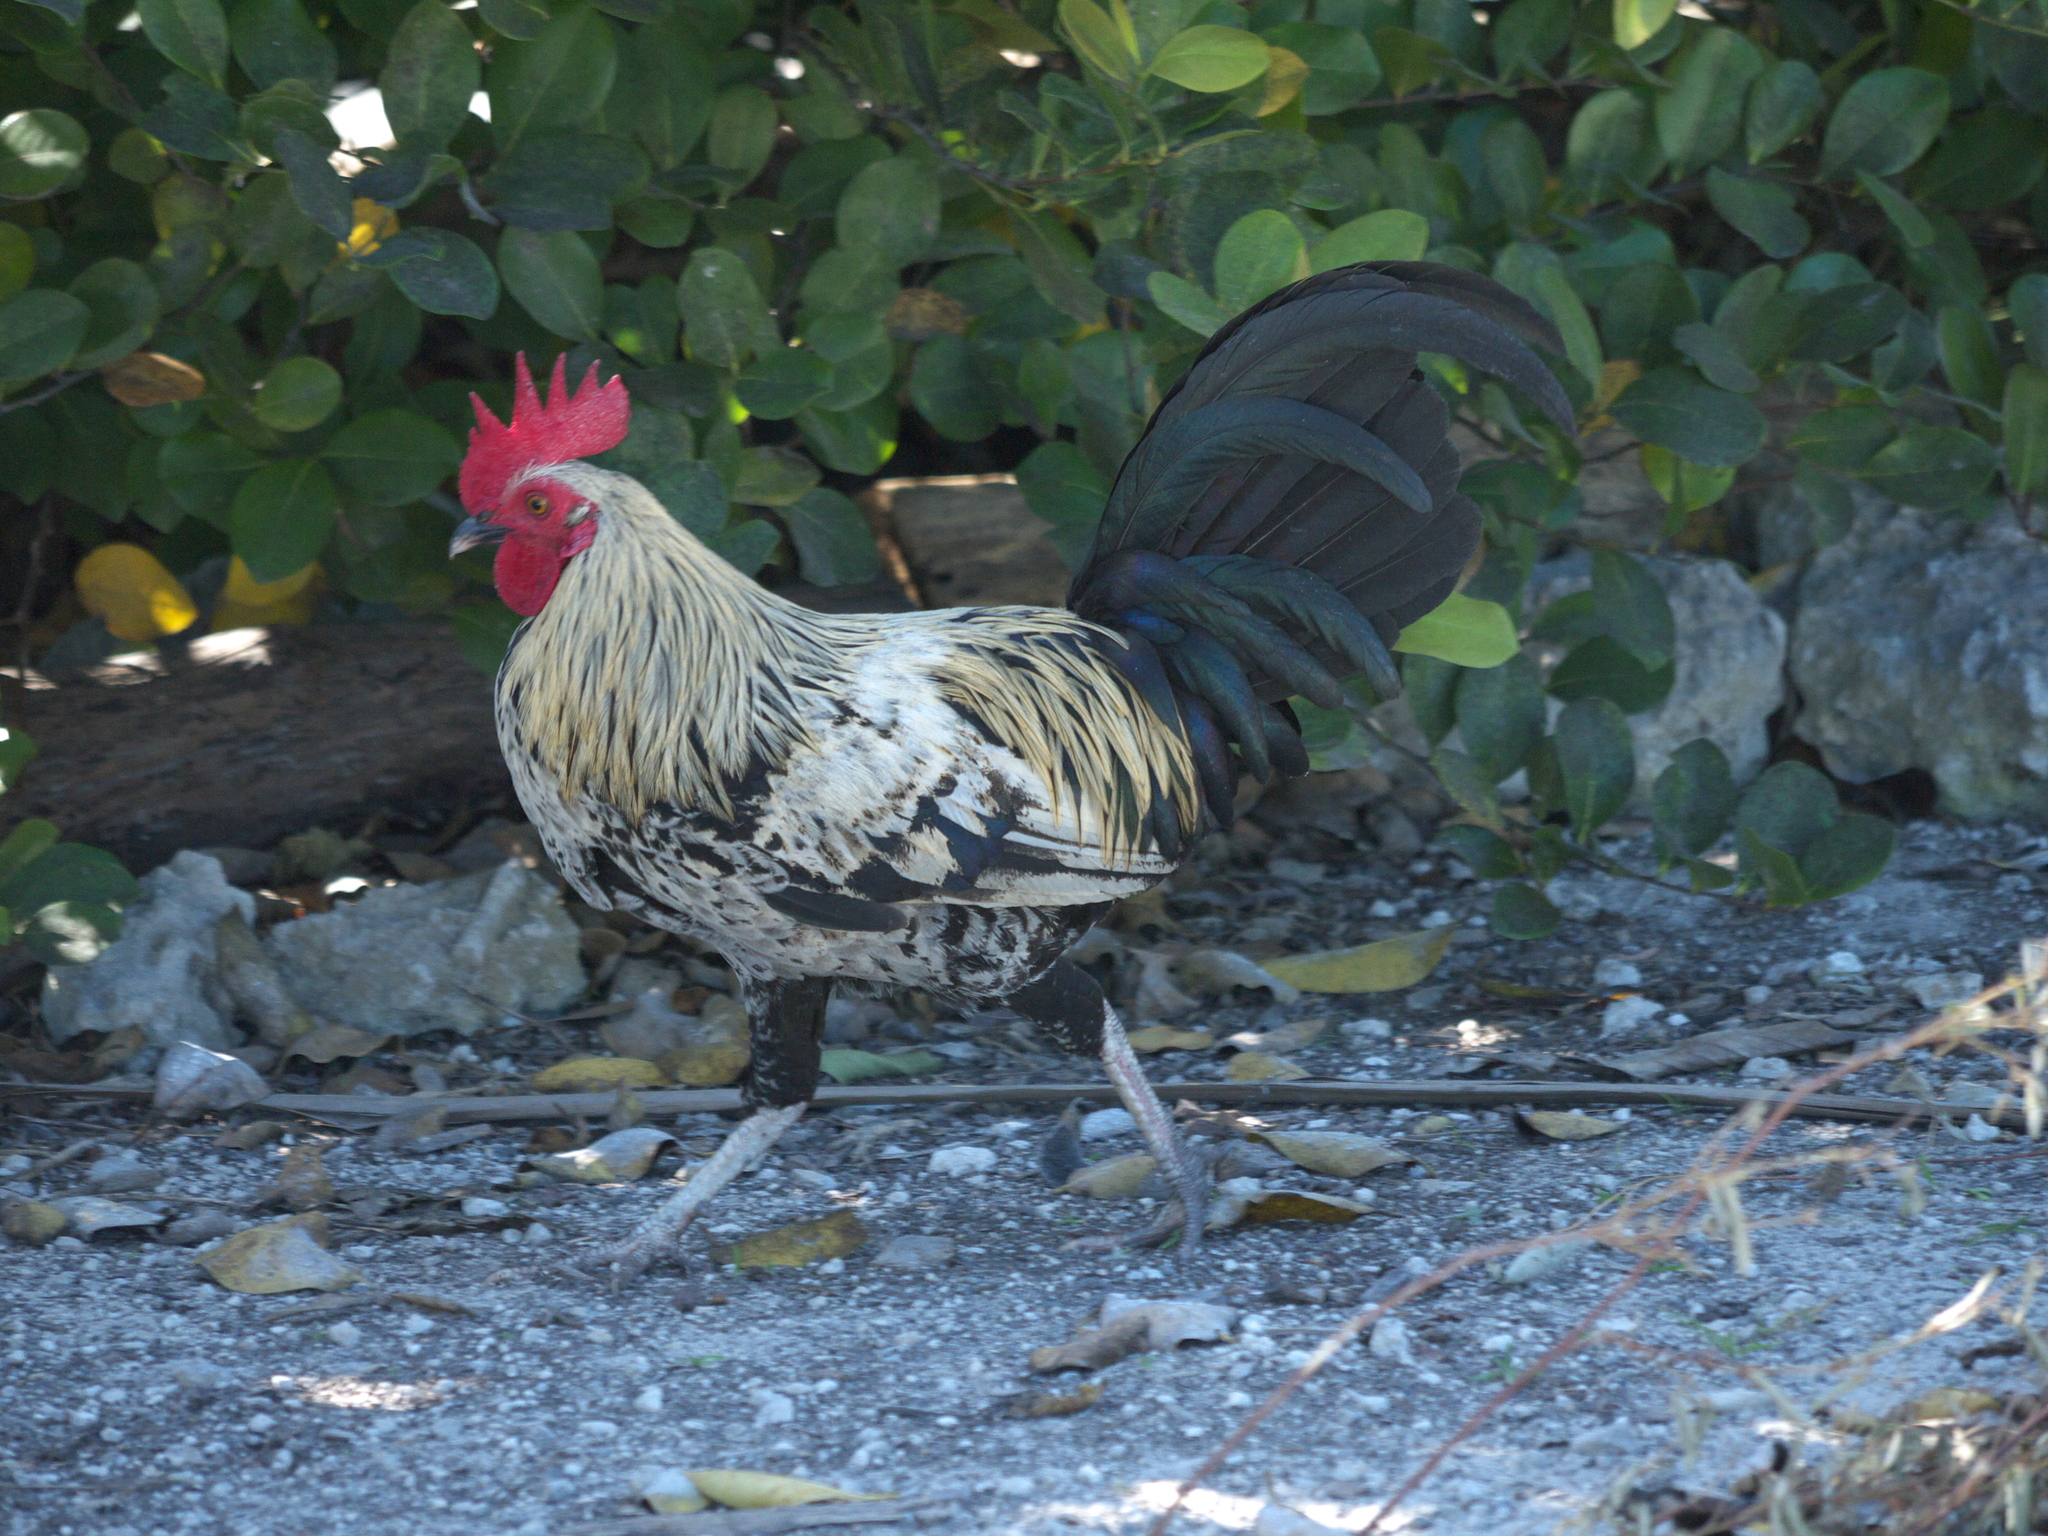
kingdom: Animalia
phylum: Chordata
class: Aves
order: Galliformes
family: Phasianidae
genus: Gallus
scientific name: Gallus gallus
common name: Red junglefowl
